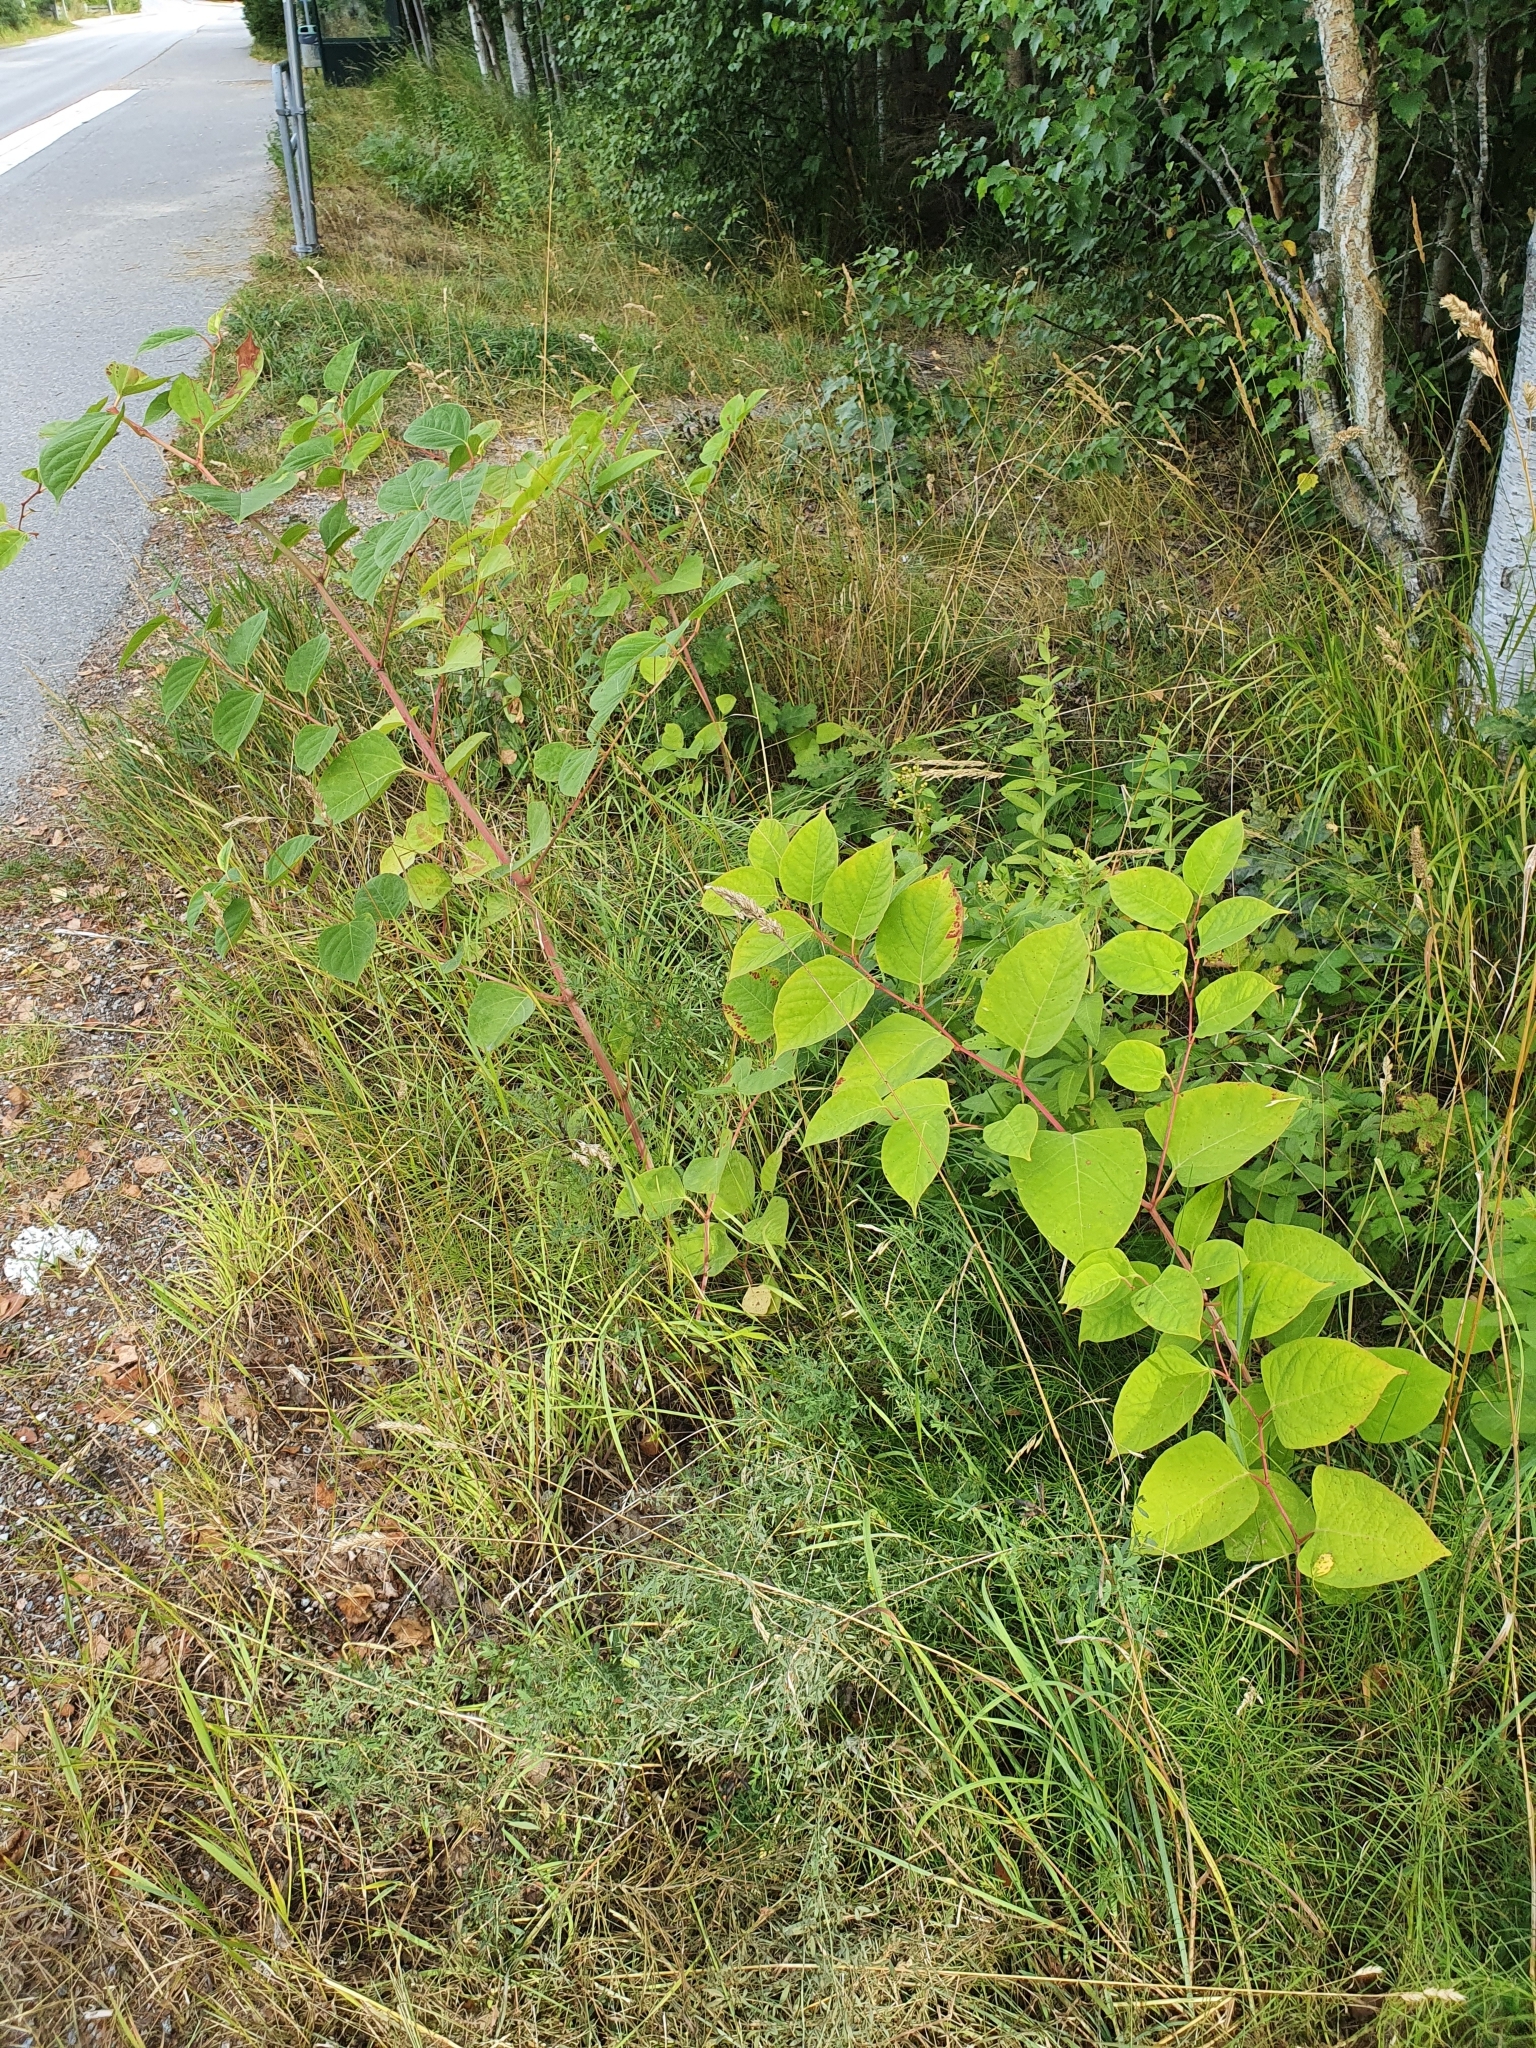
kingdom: Plantae
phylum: Tracheophyta
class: Magnoliopsida
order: Caryophyllales
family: Polygonaceae
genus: Reynoutria
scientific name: Reynoutria japonica
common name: Japanese knotweed
